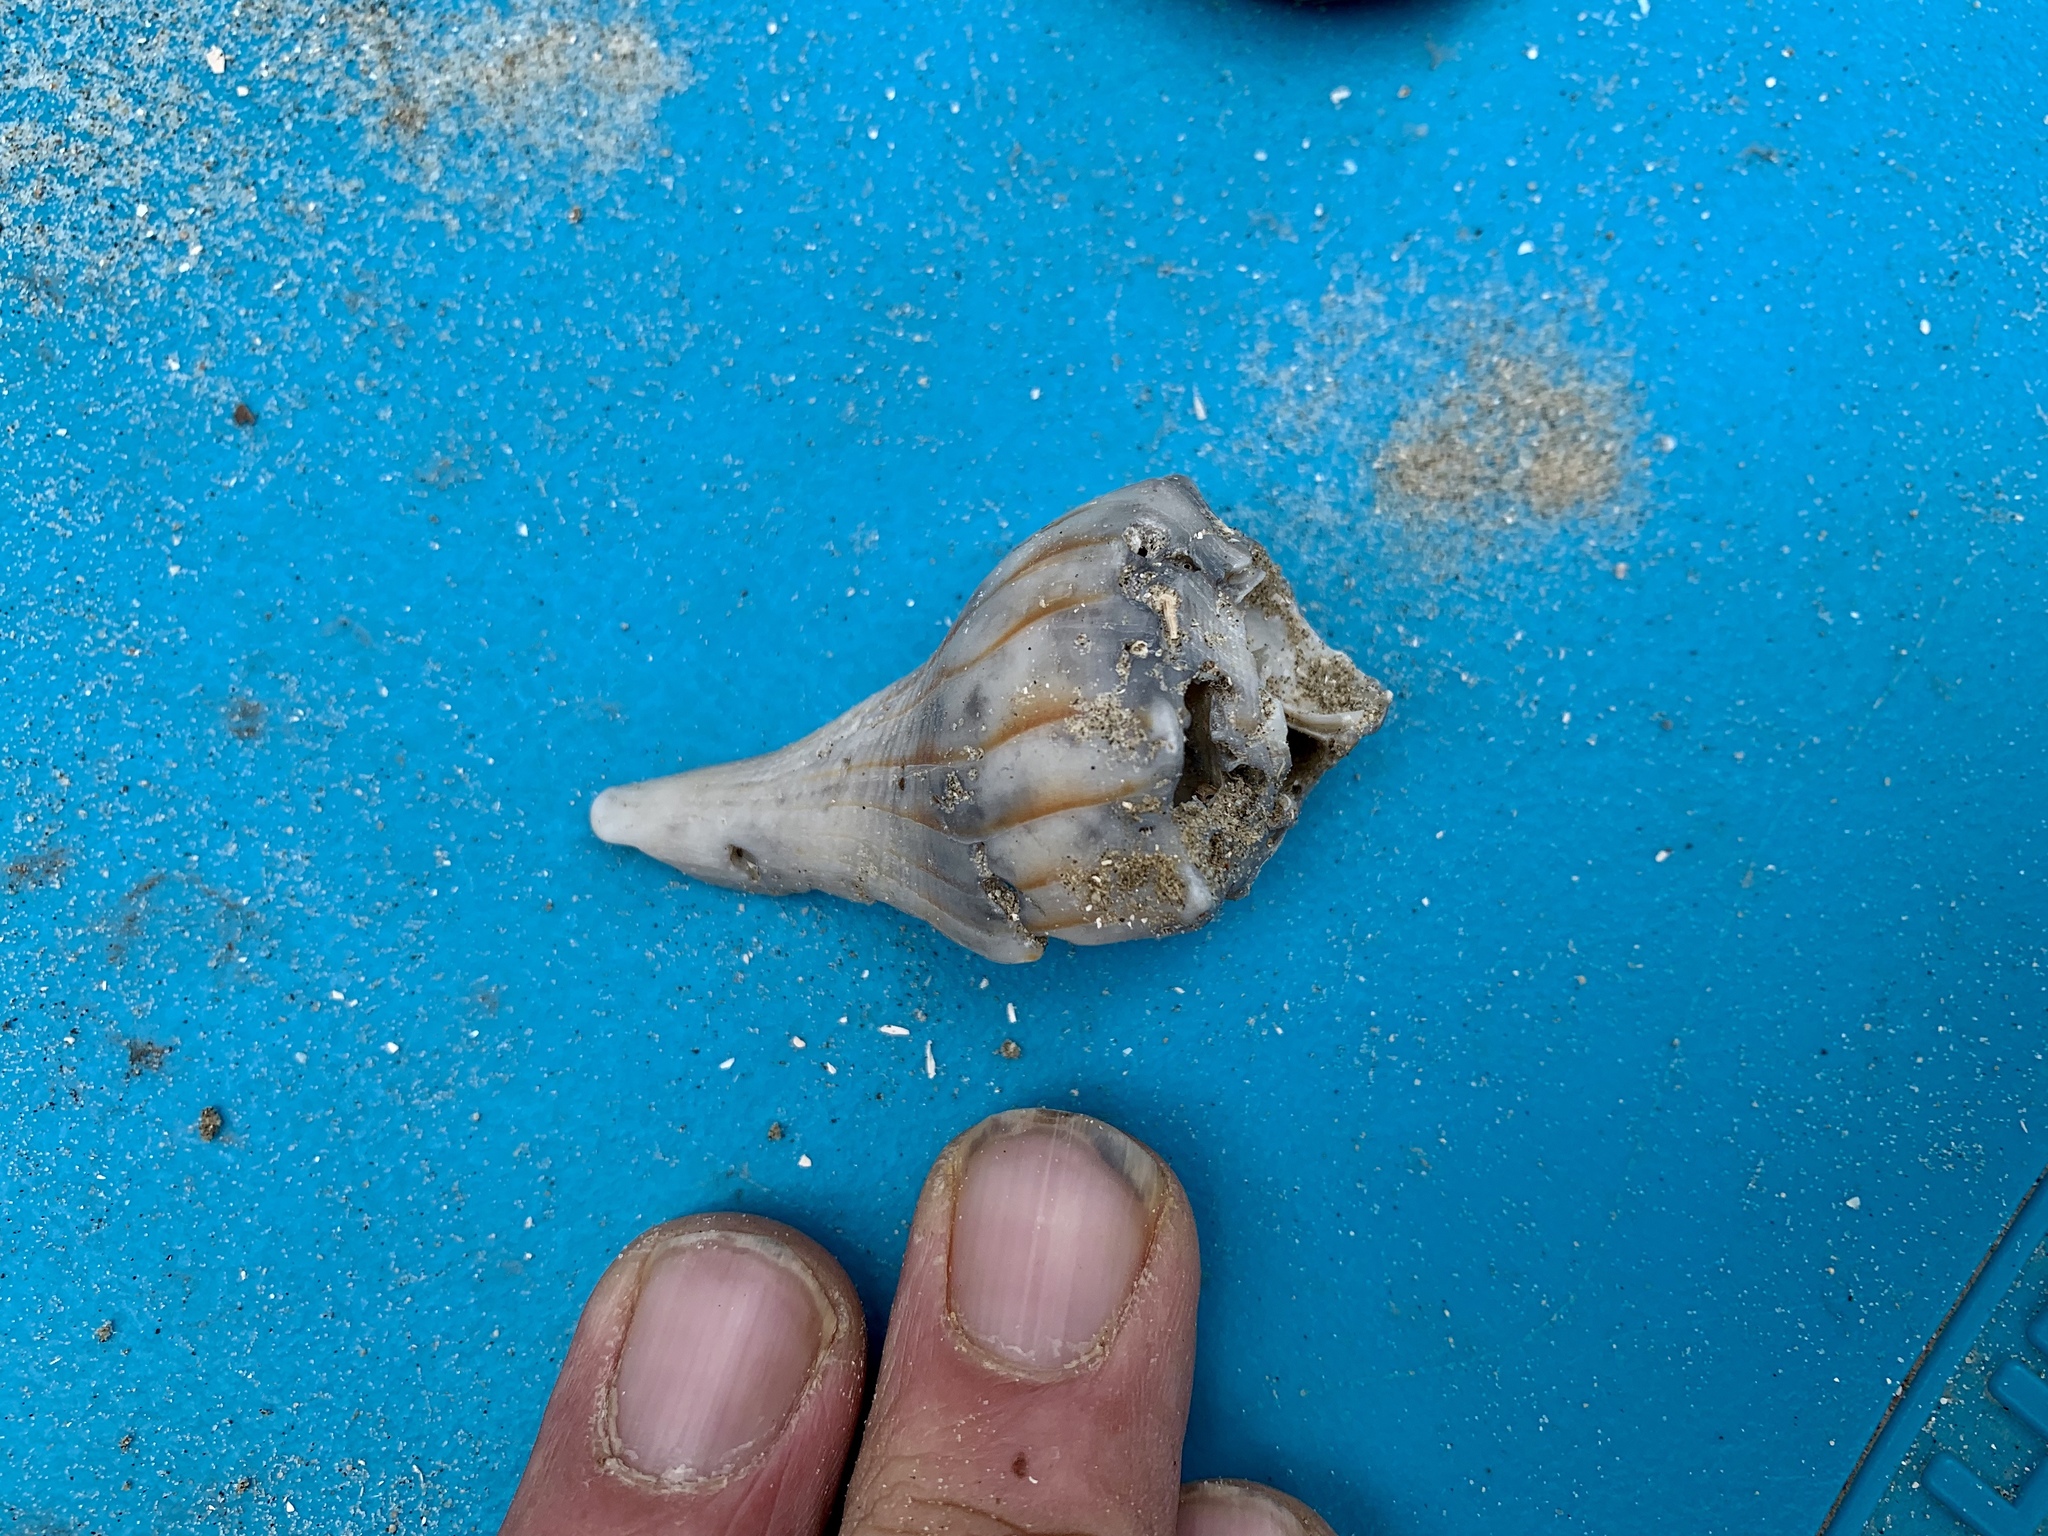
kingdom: Animalia
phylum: Mollusca
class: Gastropoda
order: Neogastropoda
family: Busyconidae
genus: Sinistrofulgur
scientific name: Sinistrofulgur pulleyi
